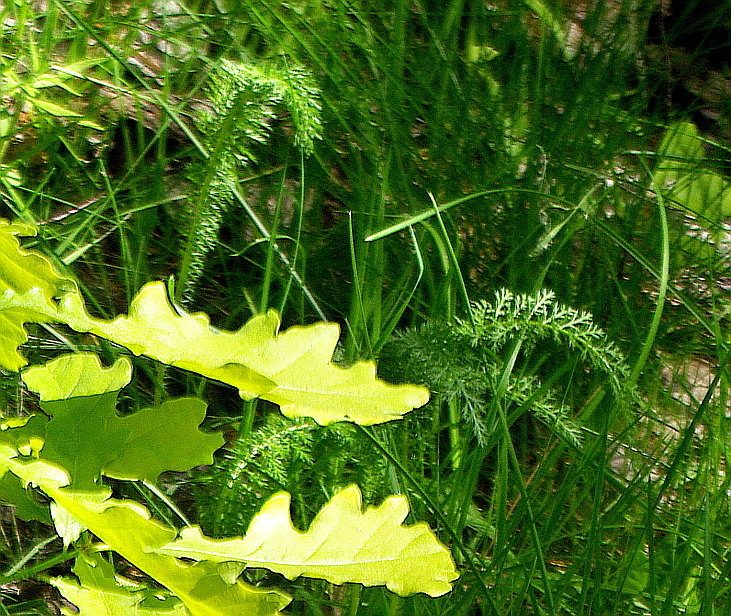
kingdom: Plantae
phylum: Tracheophyta
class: Magnoliopsida
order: Asterales
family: Asteraceae
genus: Achillea
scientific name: Achillea millefolium
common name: Yarrow
